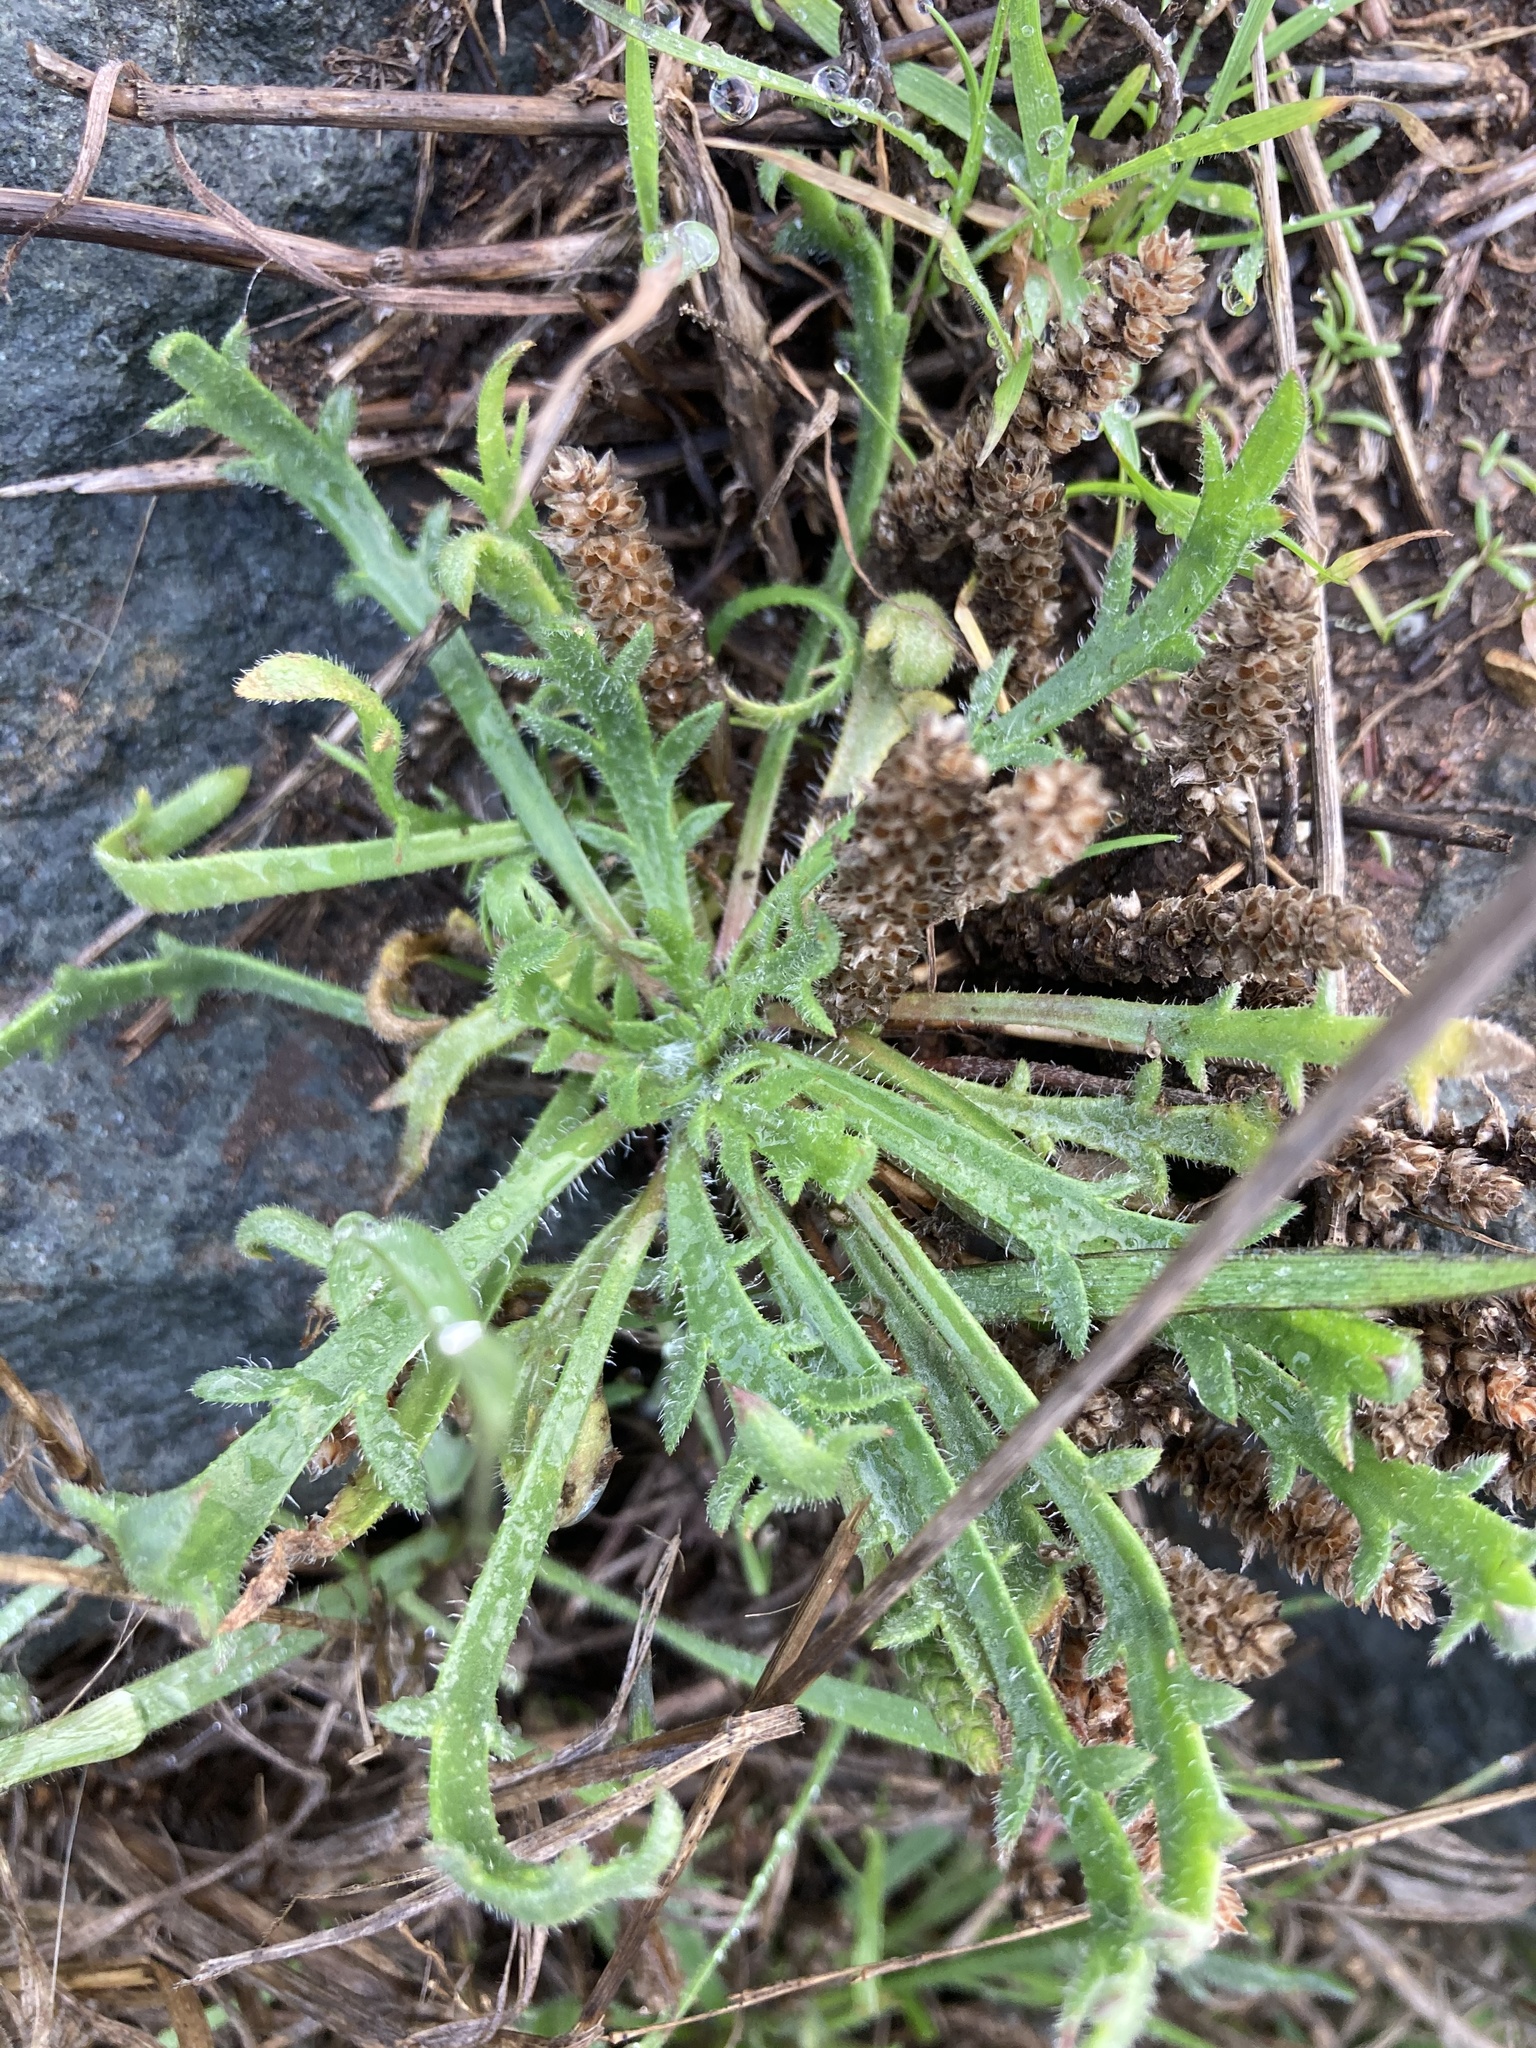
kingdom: Plantae
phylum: Tracheophyta
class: Magnoliopsida
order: Lamiales
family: Plantaginaceae
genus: Plantago
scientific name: Plantago coronopus
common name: Buck's-horn plantain
